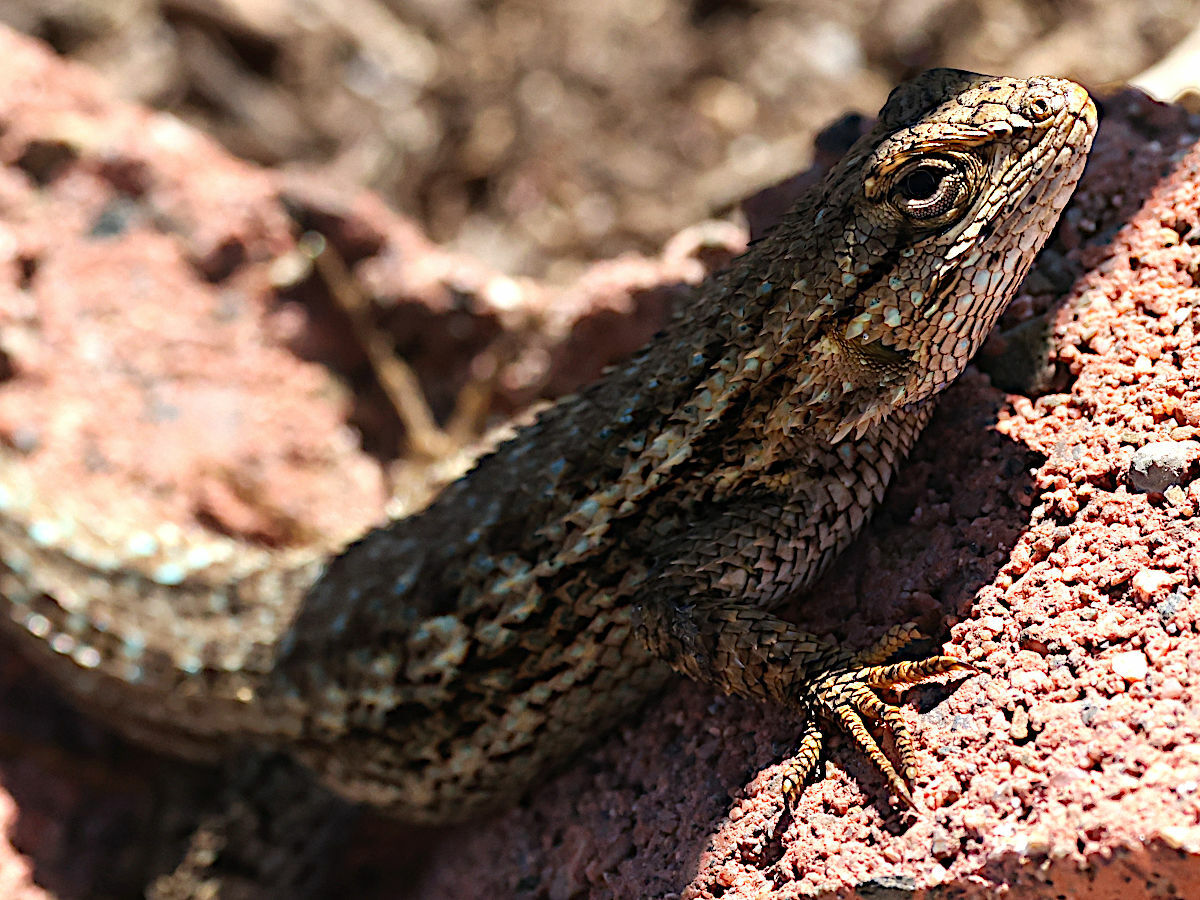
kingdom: Animalia
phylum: Chordata
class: Squamata
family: Phrynosomatidae
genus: Sceloporus
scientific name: Sceloporus occidentalis
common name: Western fence lizard
